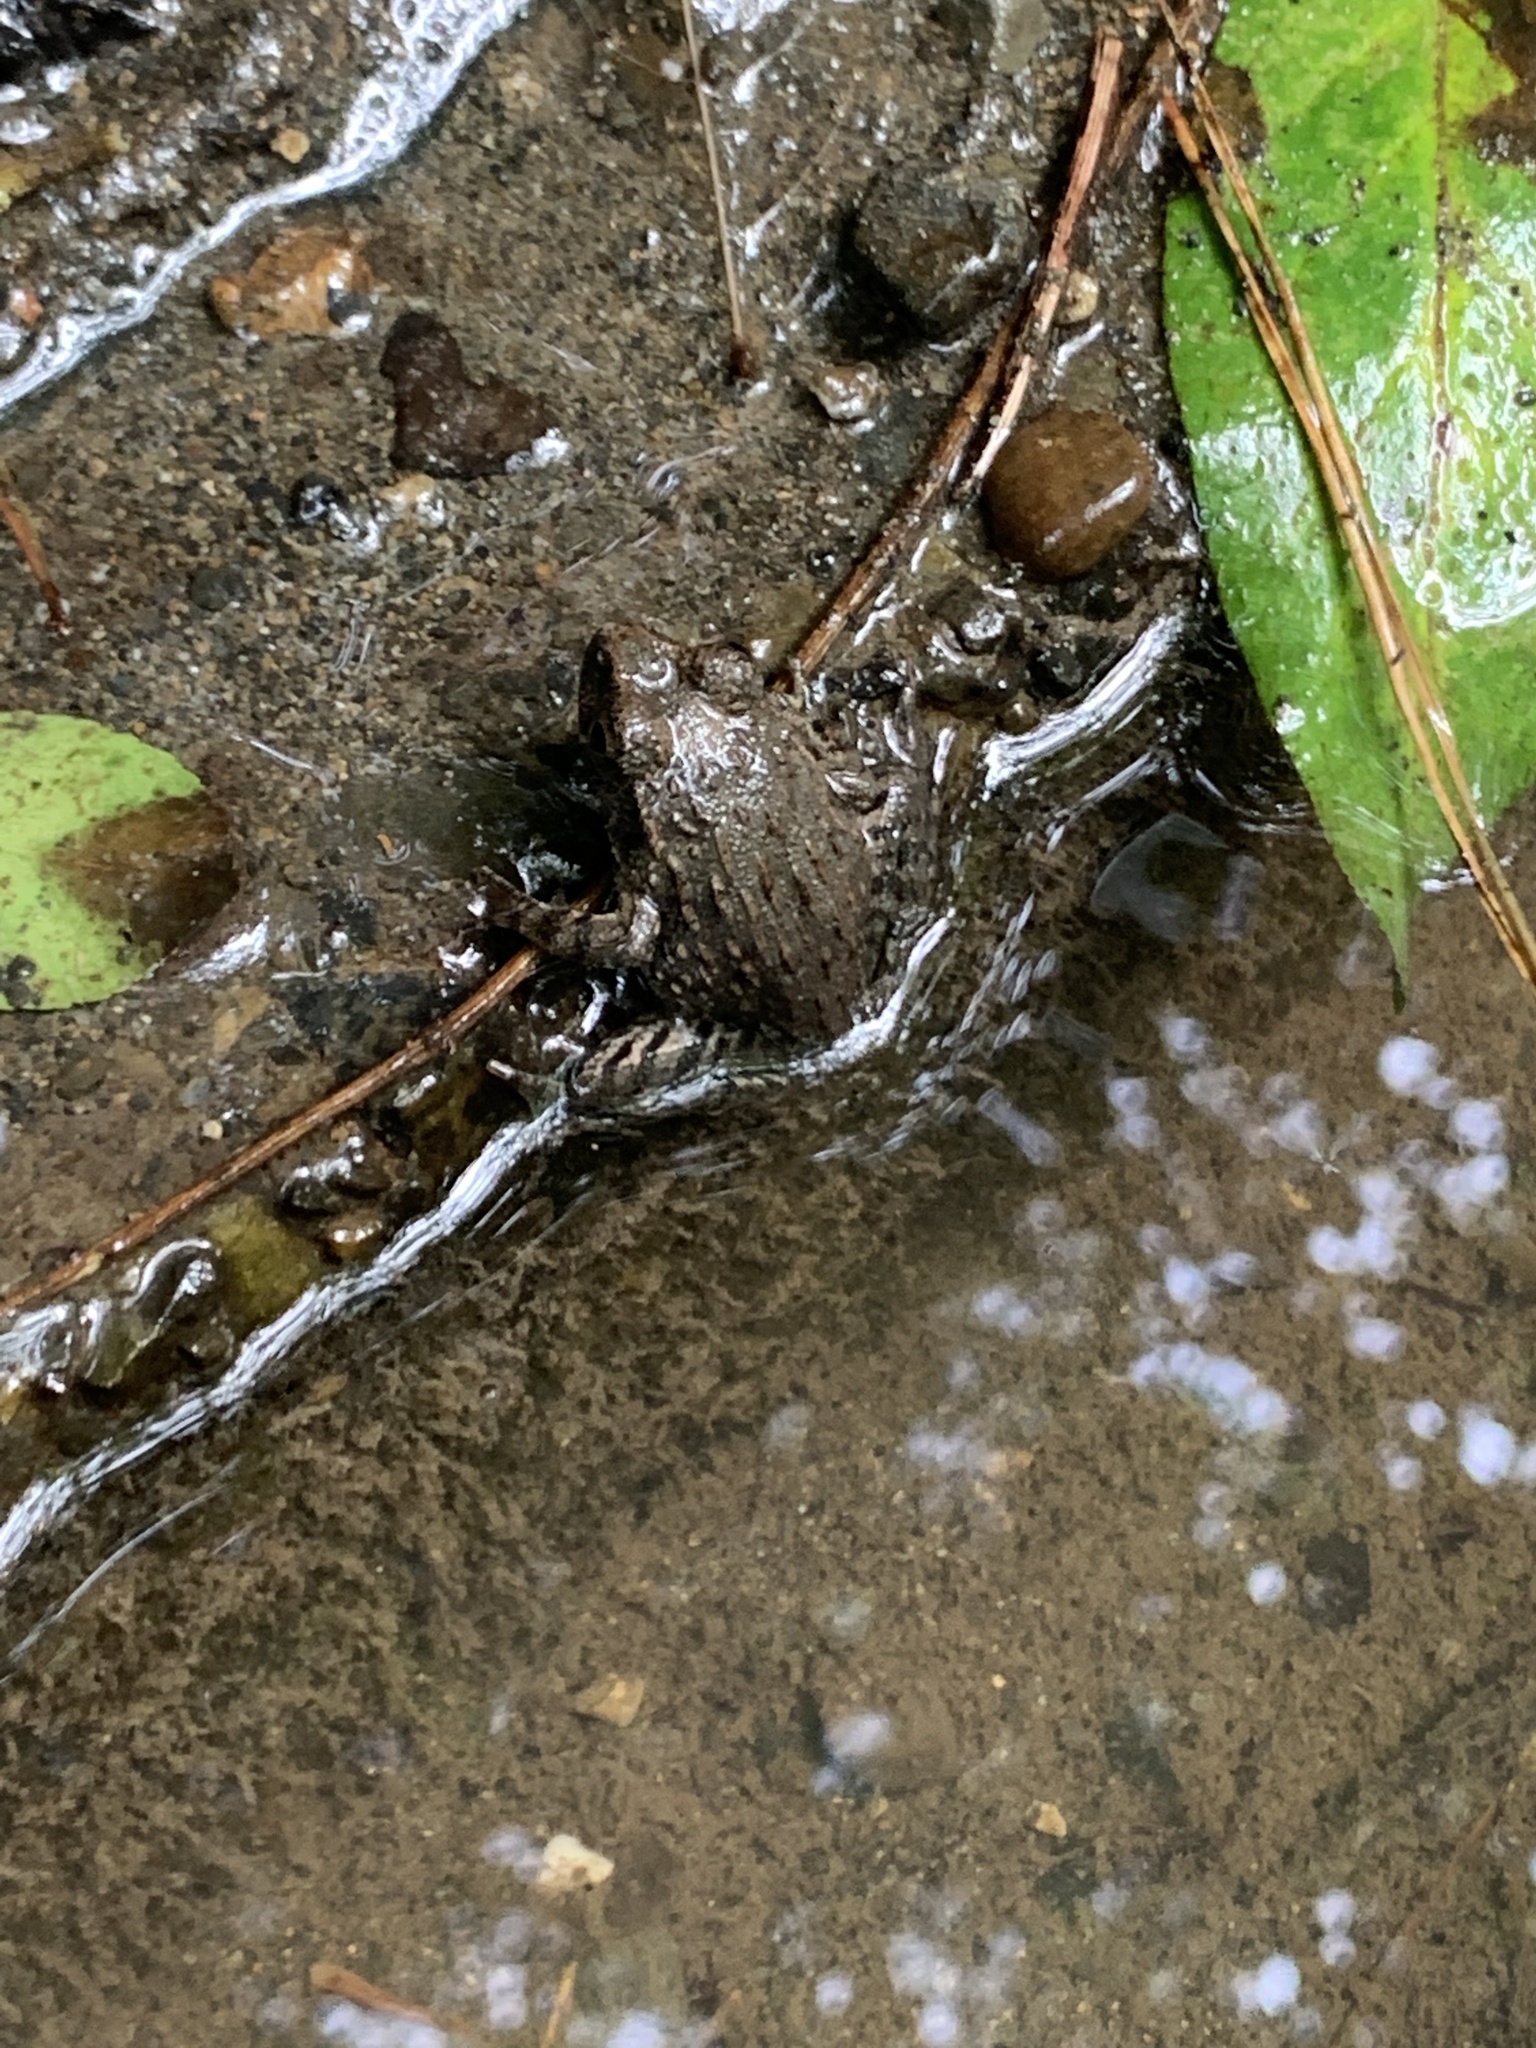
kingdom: Animalia
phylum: Chordata
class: Amphibia
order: Anura
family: Ranidae
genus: Glandirana
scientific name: Glandirana rugosa
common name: Japanese wrinkled frog
